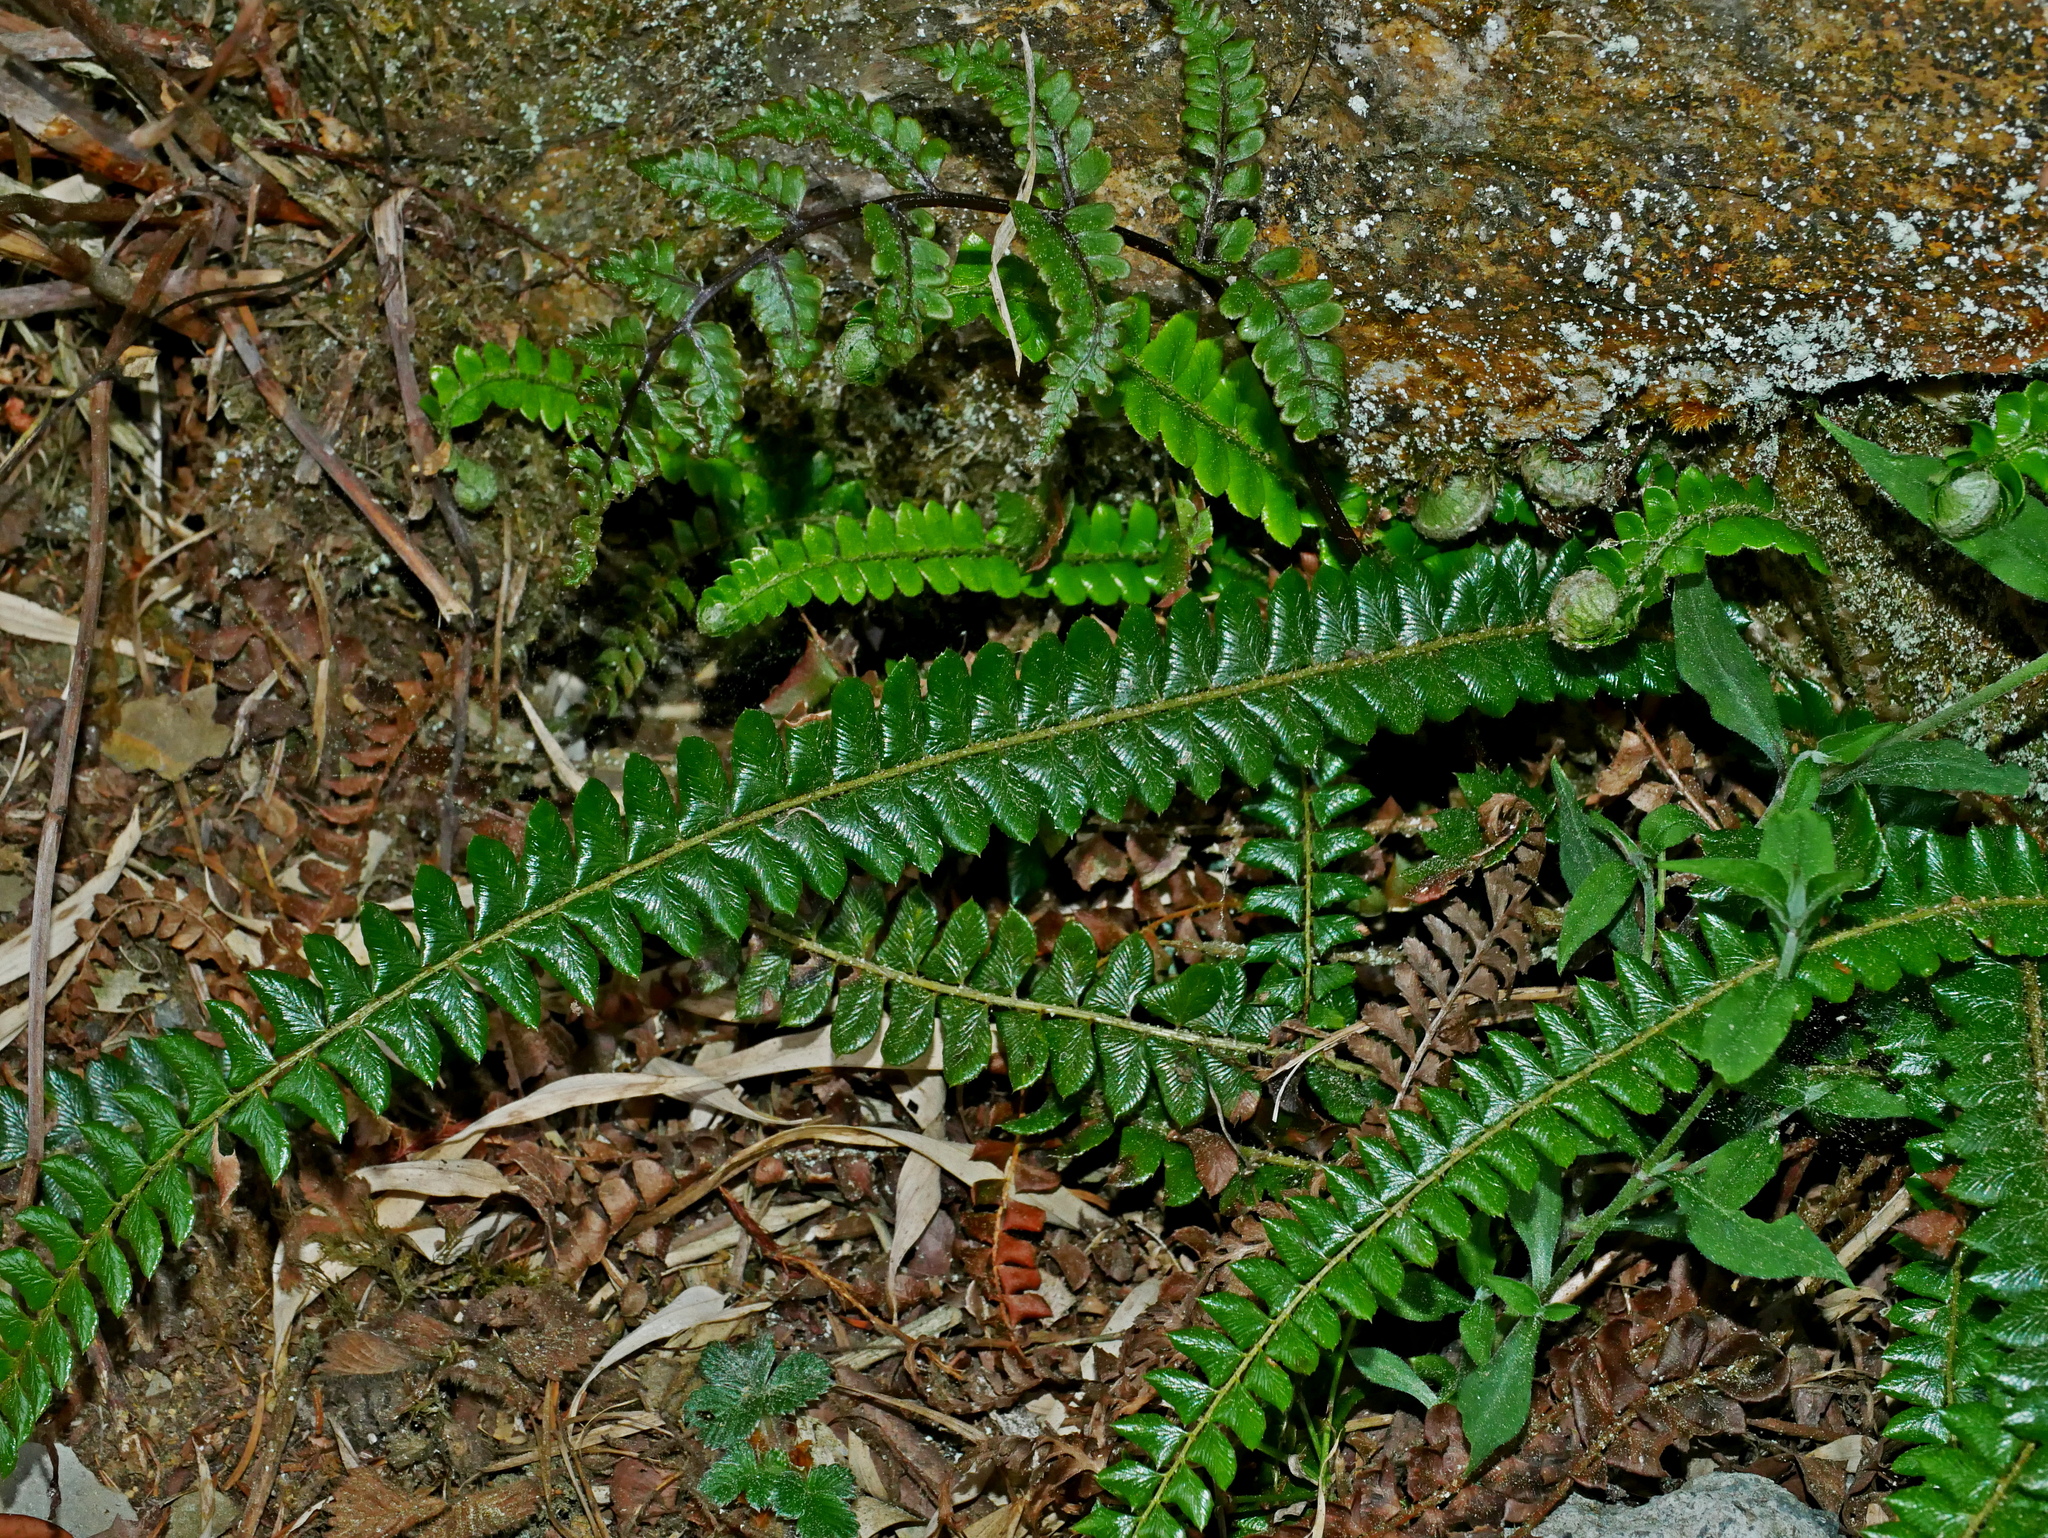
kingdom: Plantae
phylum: Tracheophyta
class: Polypodiopsida
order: Polypodiales
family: Dryopteridaceae
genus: Polystichum
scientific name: Polystichum levingei
